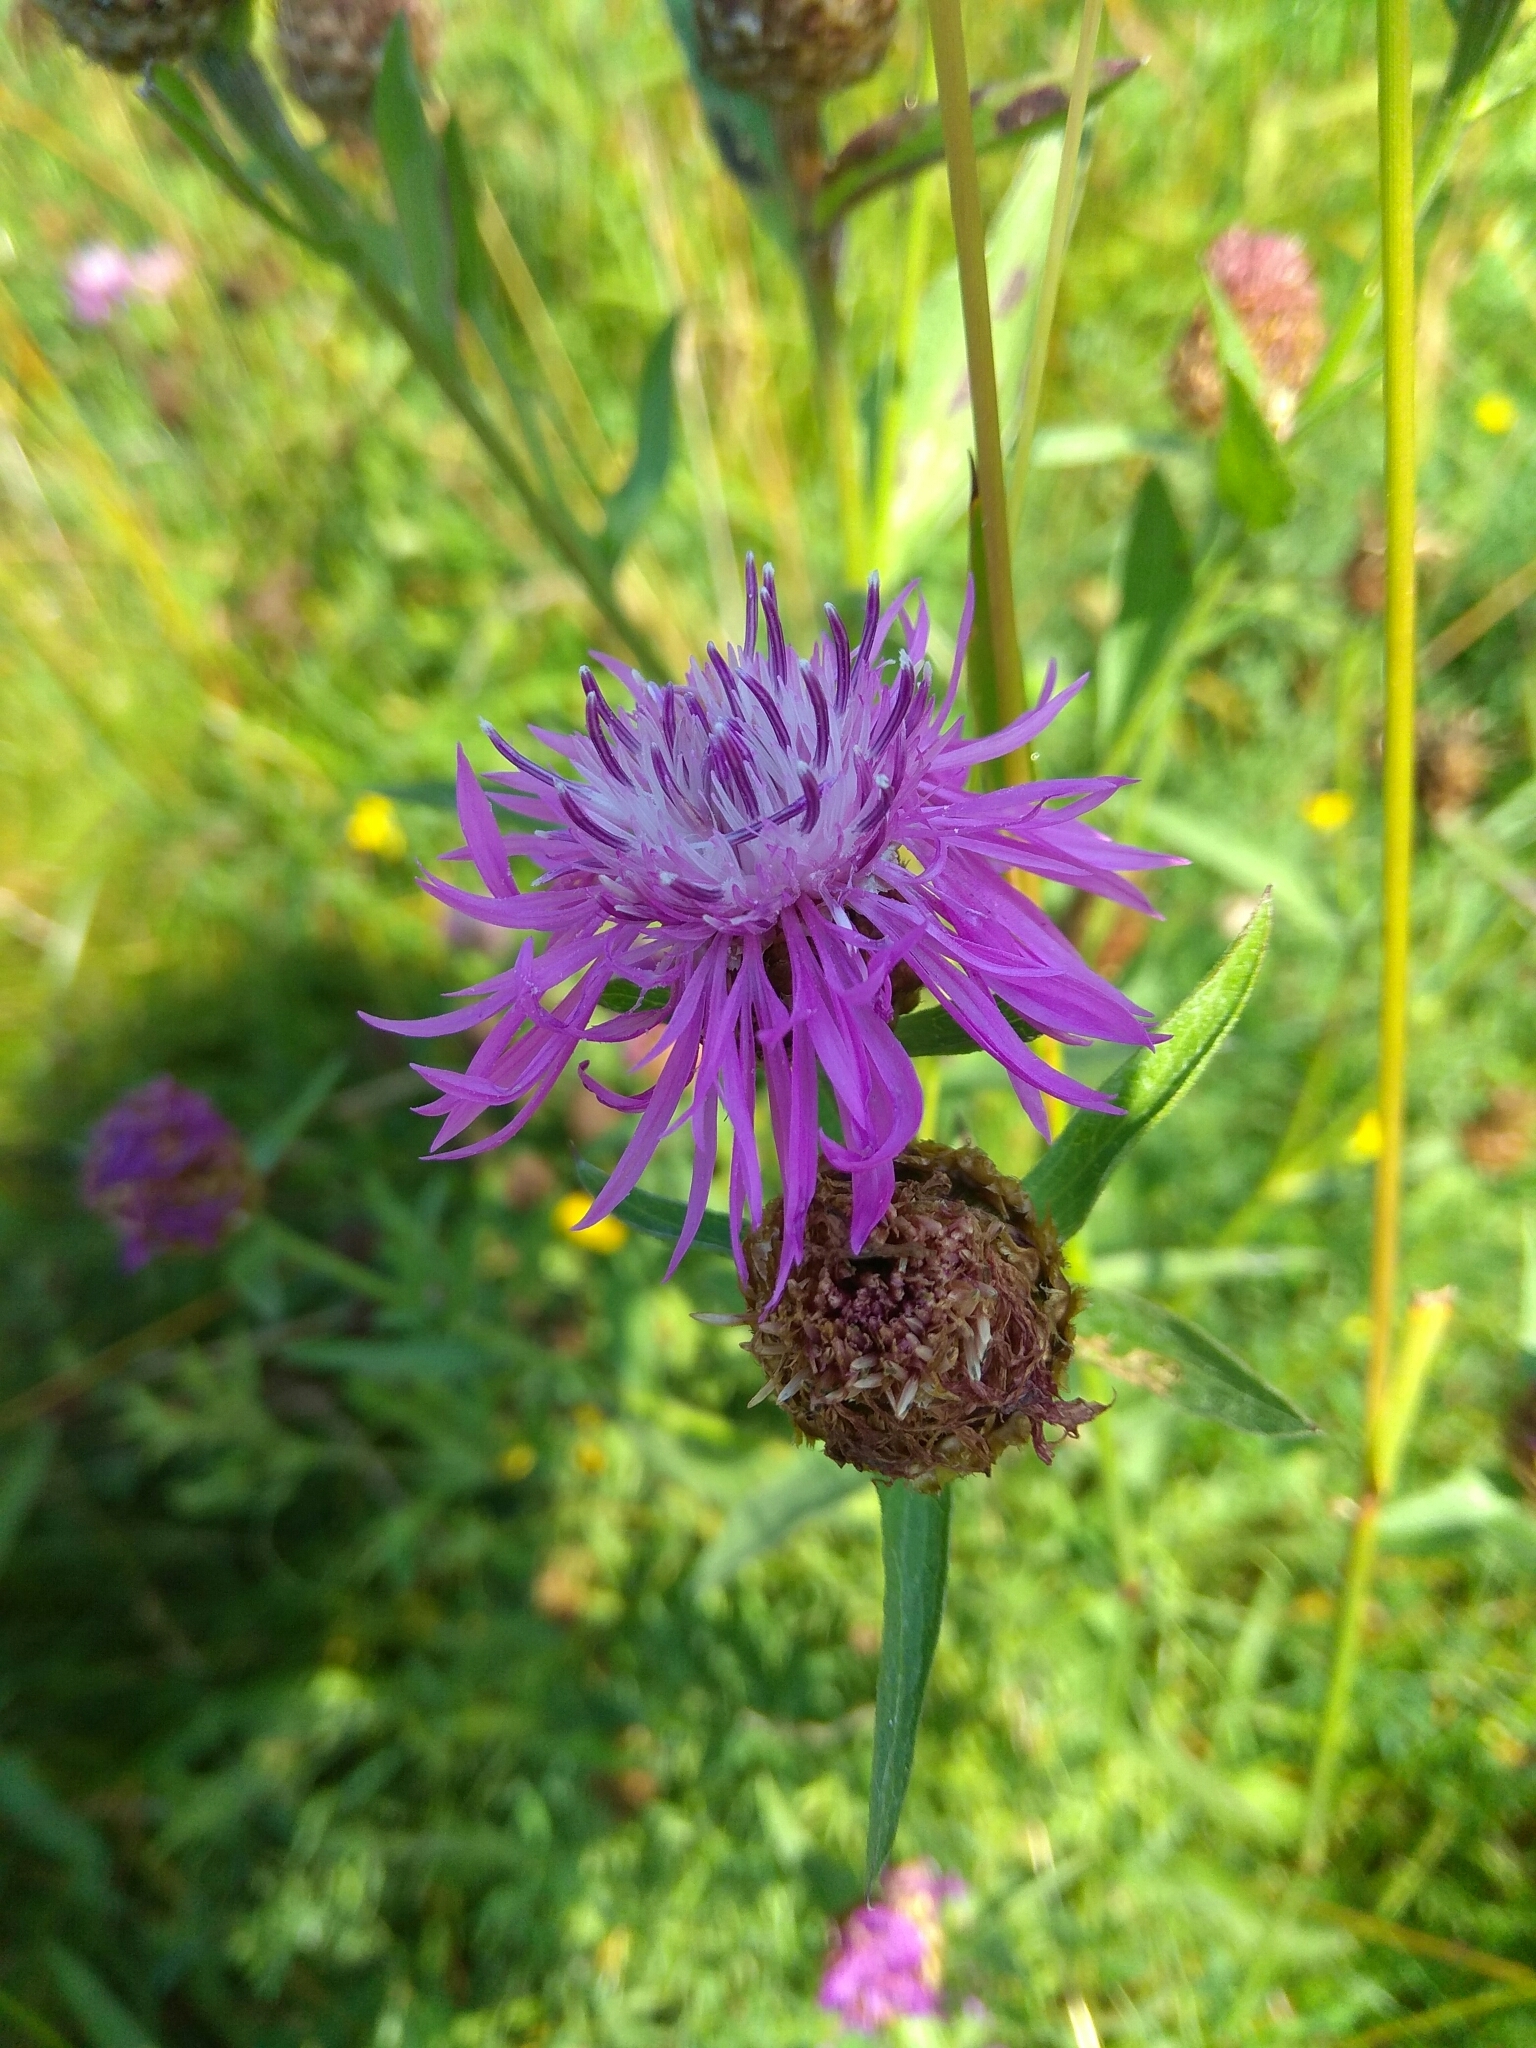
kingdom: Plantae
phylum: Tracheophyta
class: Magnoliopsida
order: Asterales
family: Asteraceae
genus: Centaurea
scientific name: Centaurea jacea
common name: Brown knapweed
